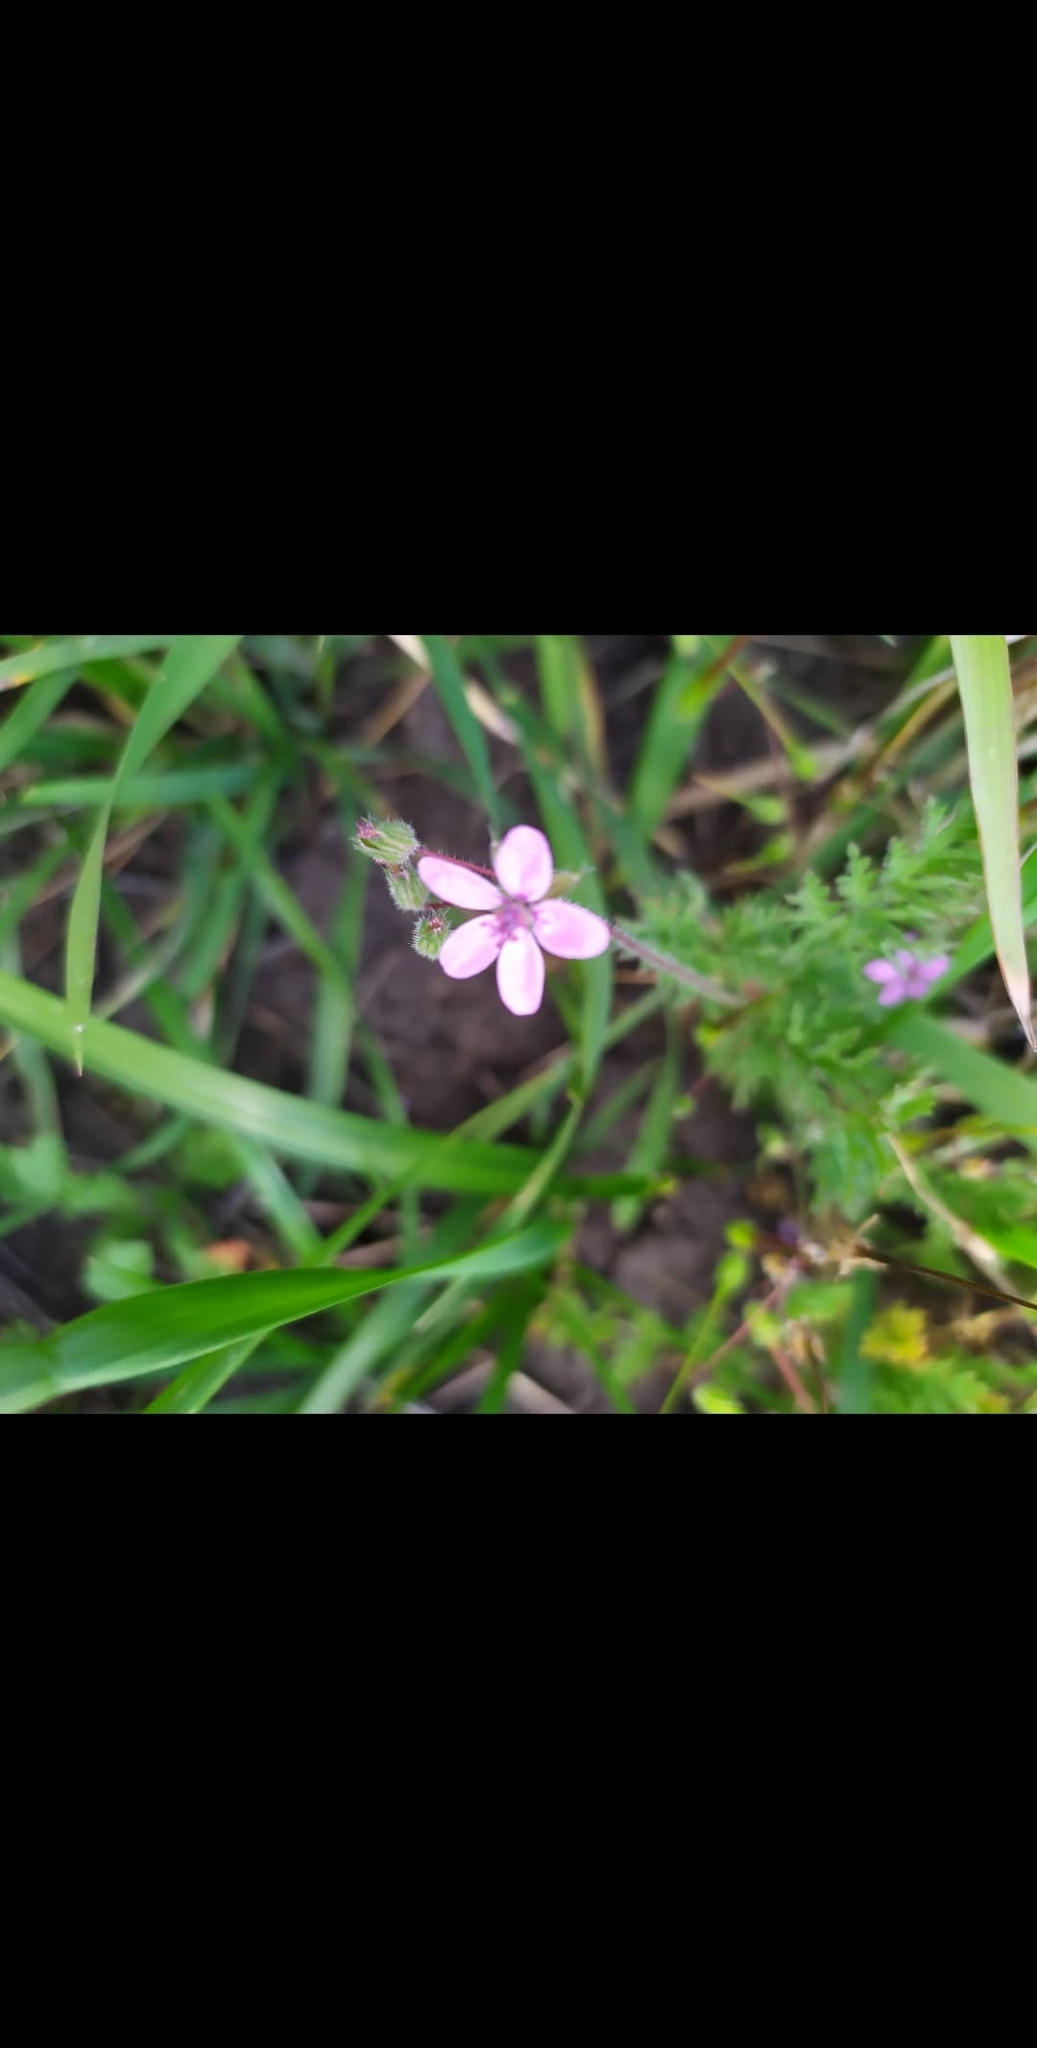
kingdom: Plantae
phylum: Tracheophyta
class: Magnoliopsida
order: Geraniales
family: Geraniaceae
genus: Erodium
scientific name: Erodium cicutarium
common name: Common stork's-bill
